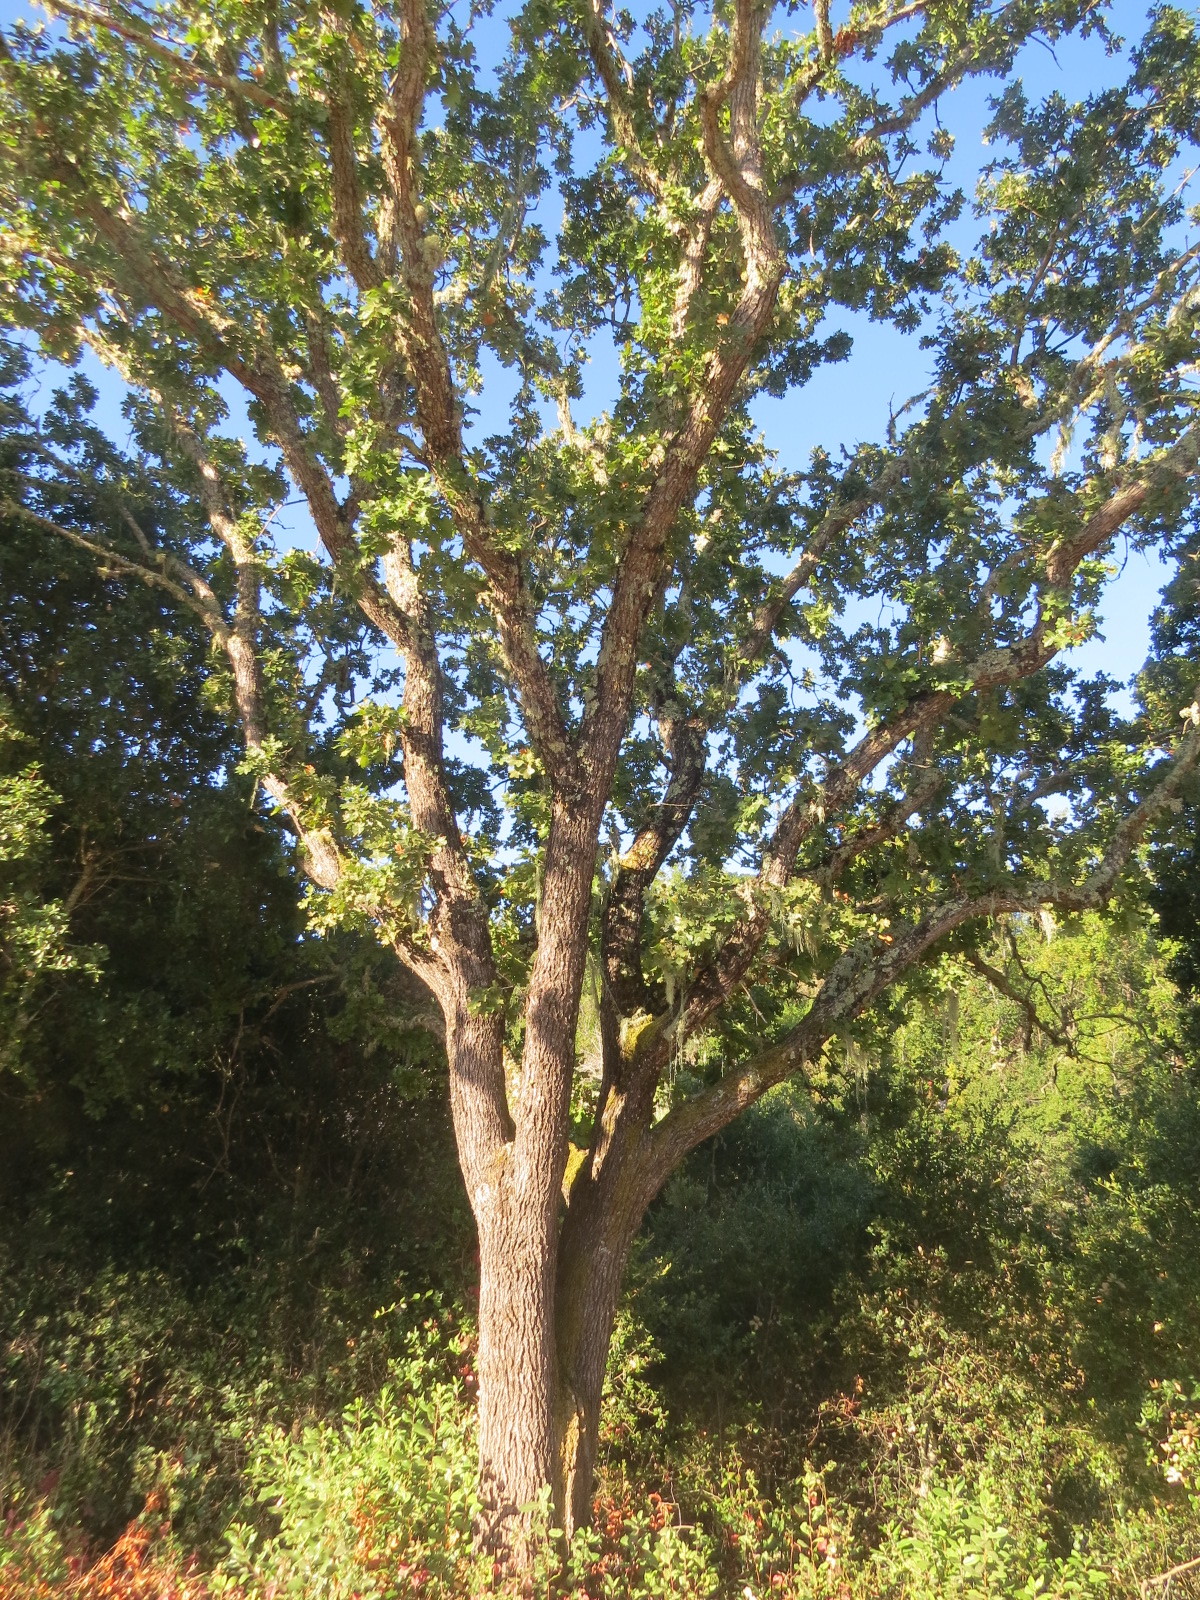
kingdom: Animalia
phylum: Arthropoda
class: Insecta
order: Hymenoptera
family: Cynipidae
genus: Andricus
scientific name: Andricus
